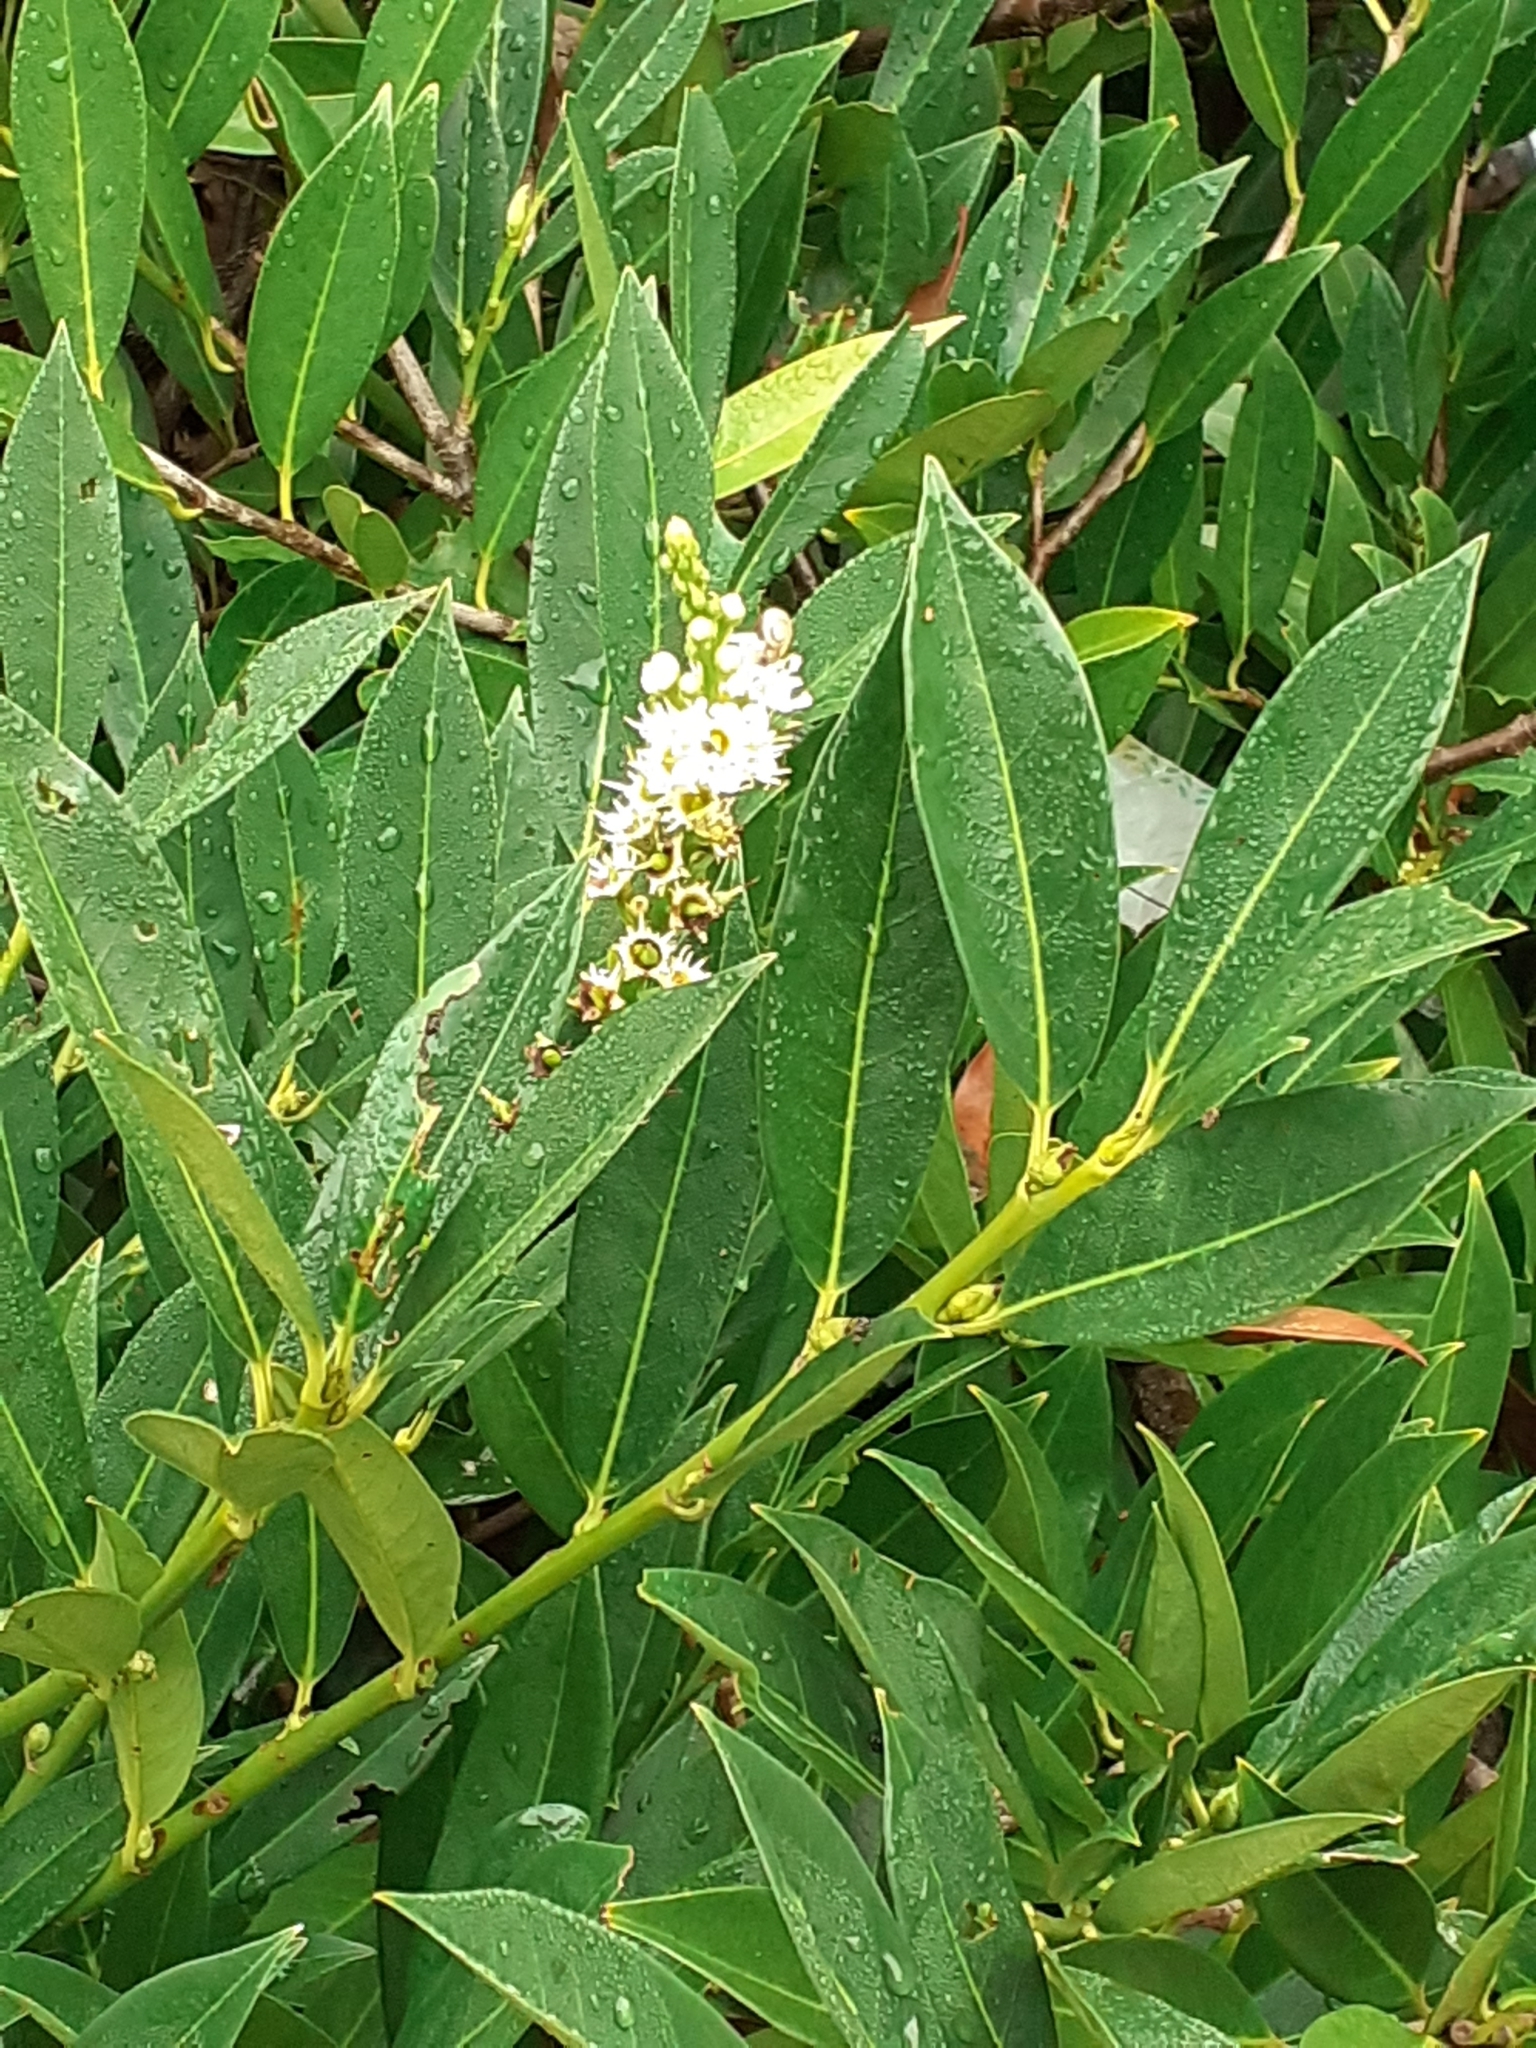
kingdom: Plantae
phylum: Tracheophyta
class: Magnoliopsida
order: Rosales
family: Rosaceae
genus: Prunus
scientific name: Prunus laurocerasus
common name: Cherry laurel
